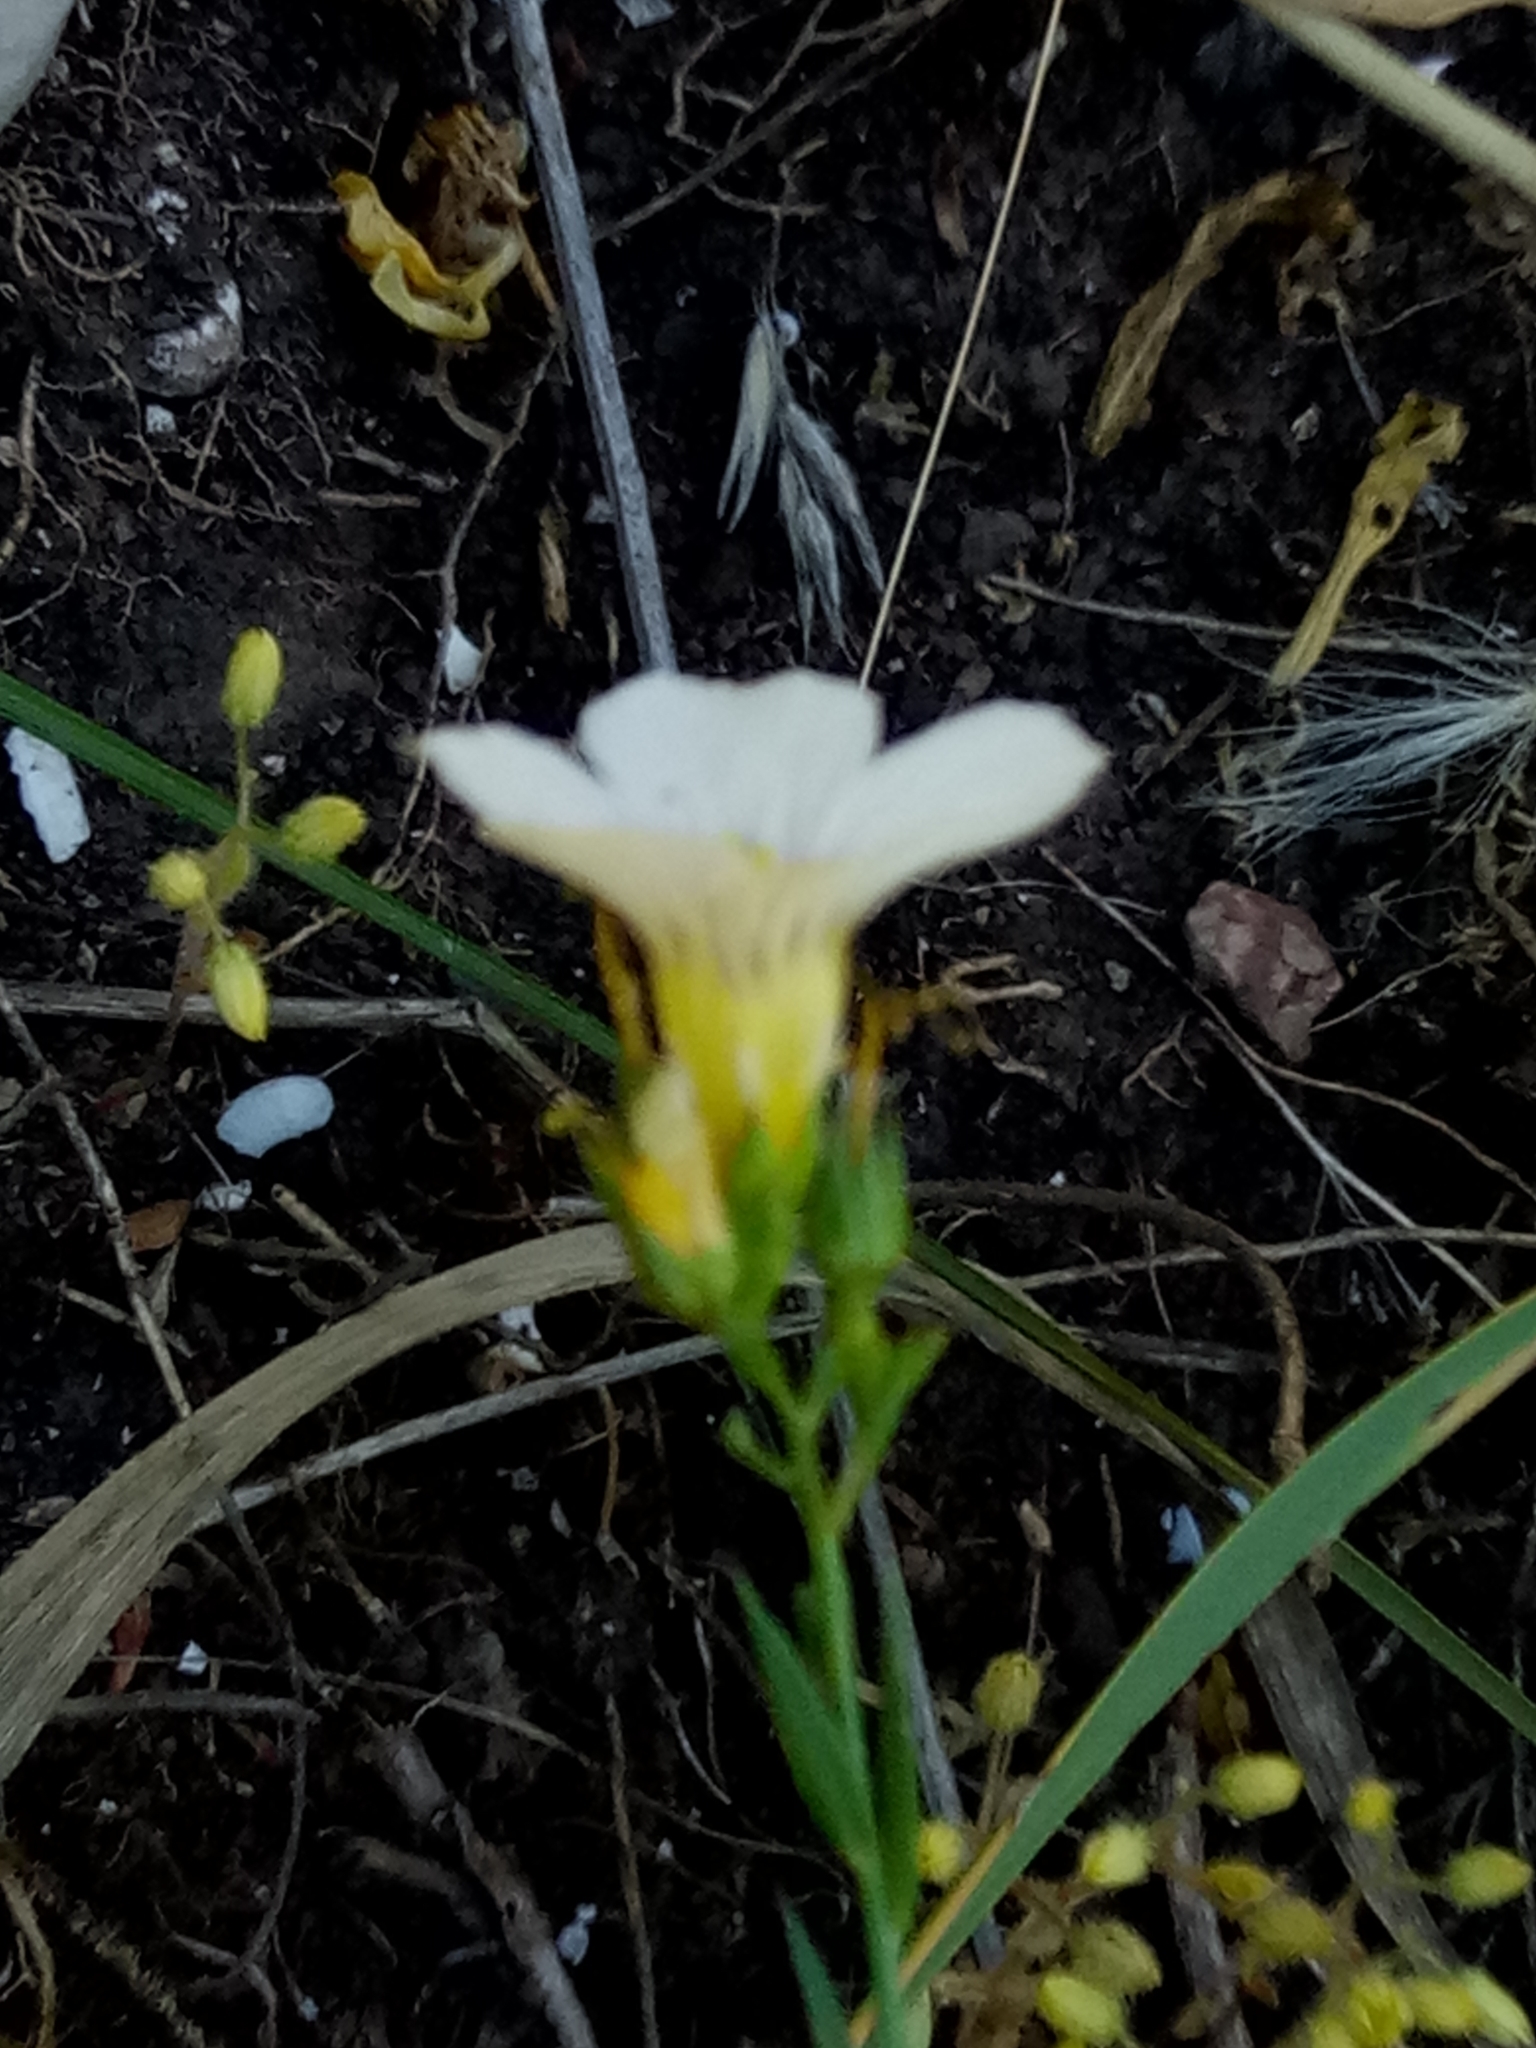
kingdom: Plantae
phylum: Tracheophyta
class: Magnoliopsida
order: Malpighiales
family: Linaceae
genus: Linum
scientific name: Linum corymbiferum
